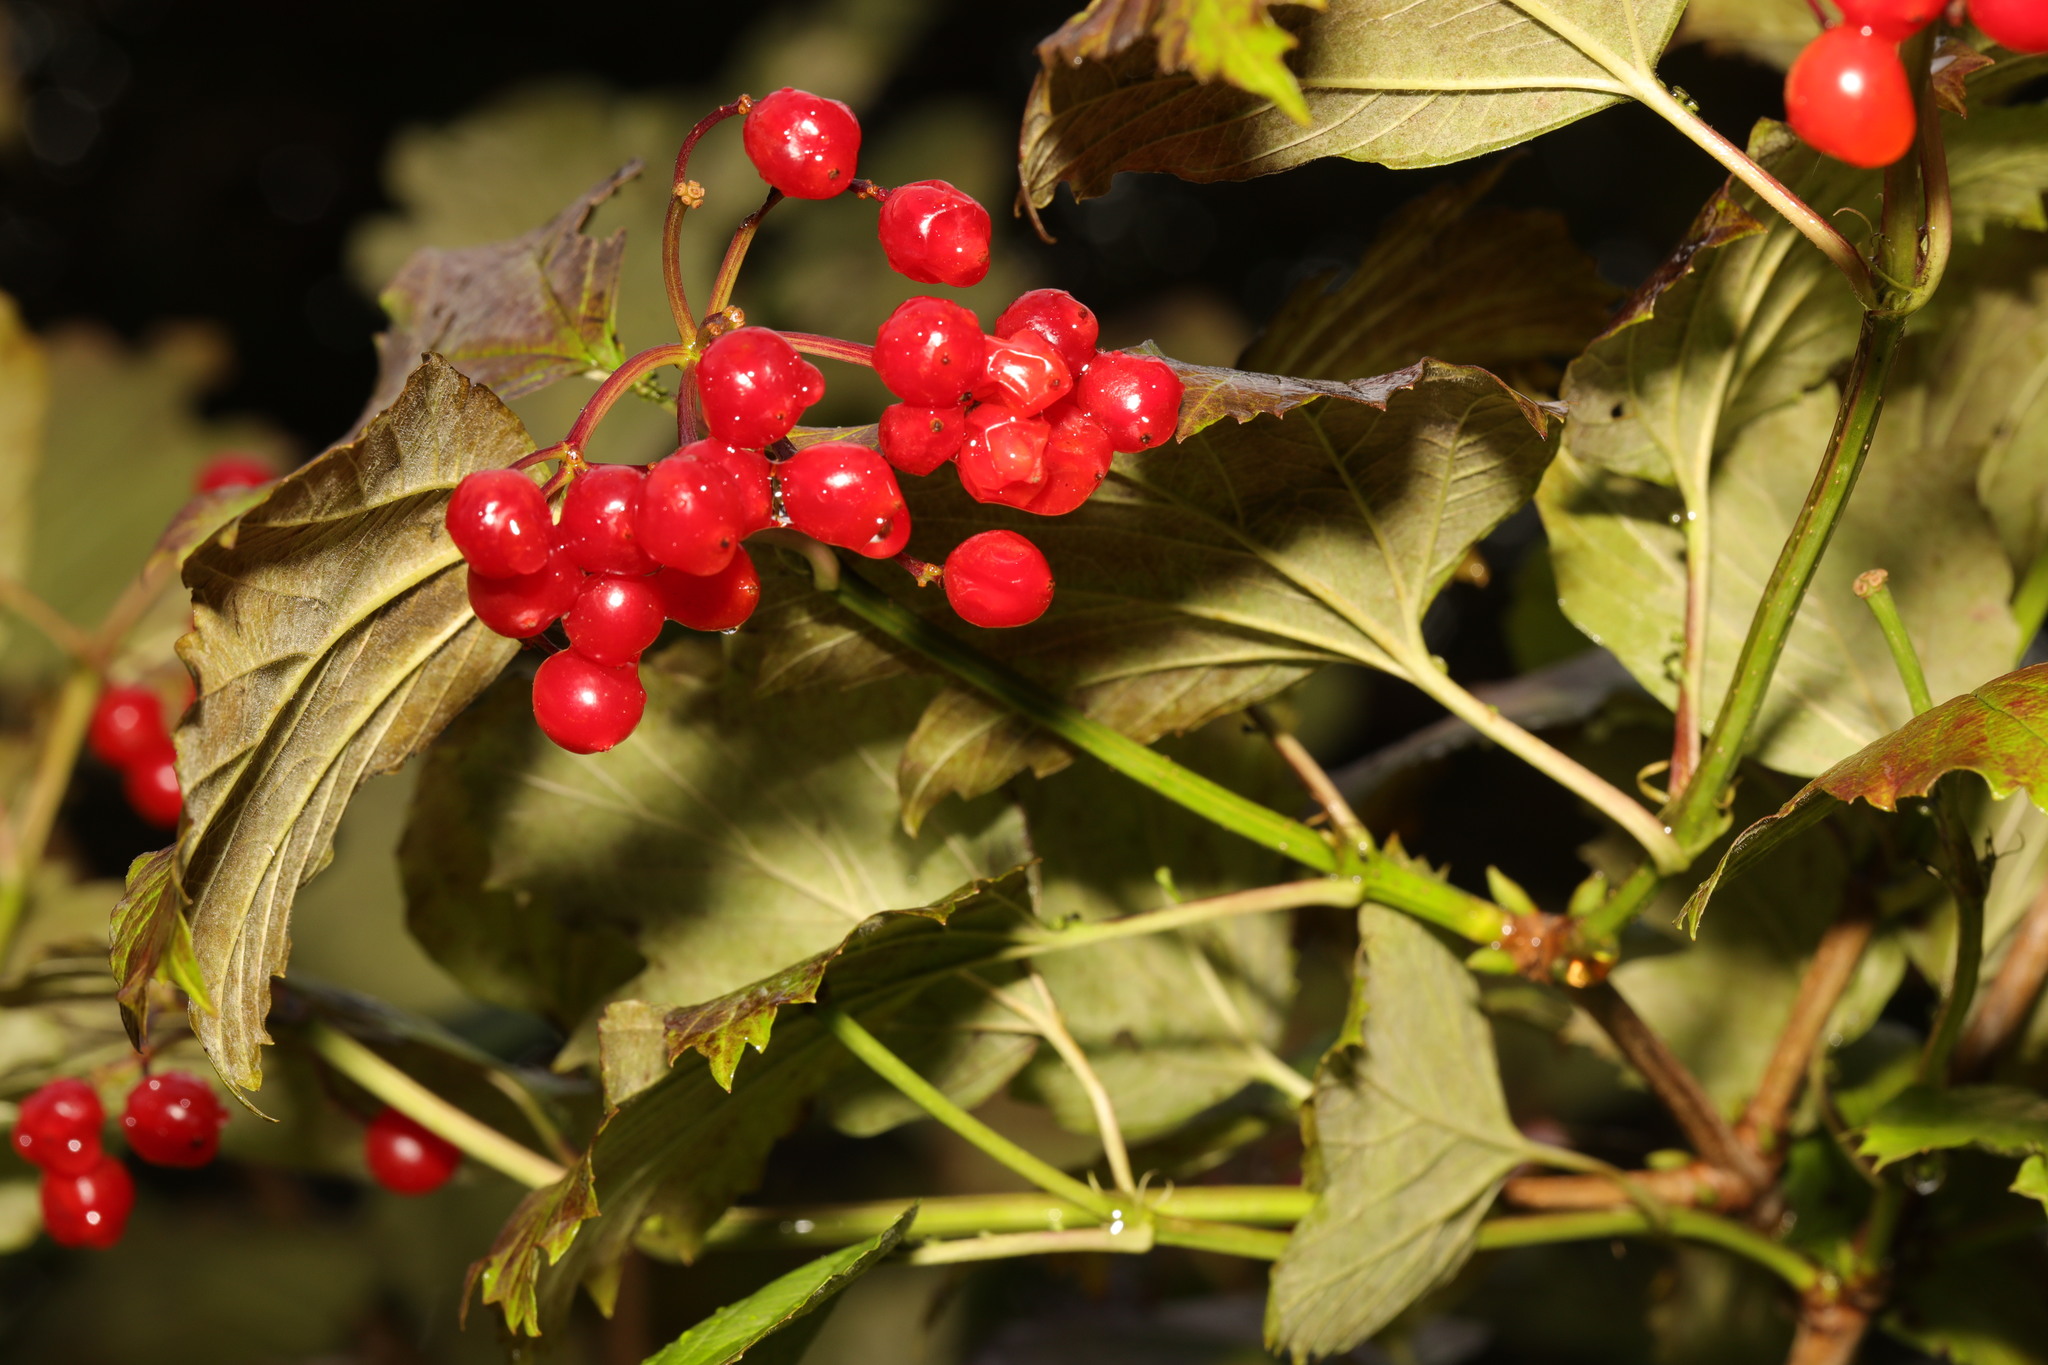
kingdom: Plantae
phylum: Tracheophyta
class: Magnoliopsida
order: Dipsacales
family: Viburnaceae
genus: Viburnum
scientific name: Viburnum opulus
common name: Guelder-rose
